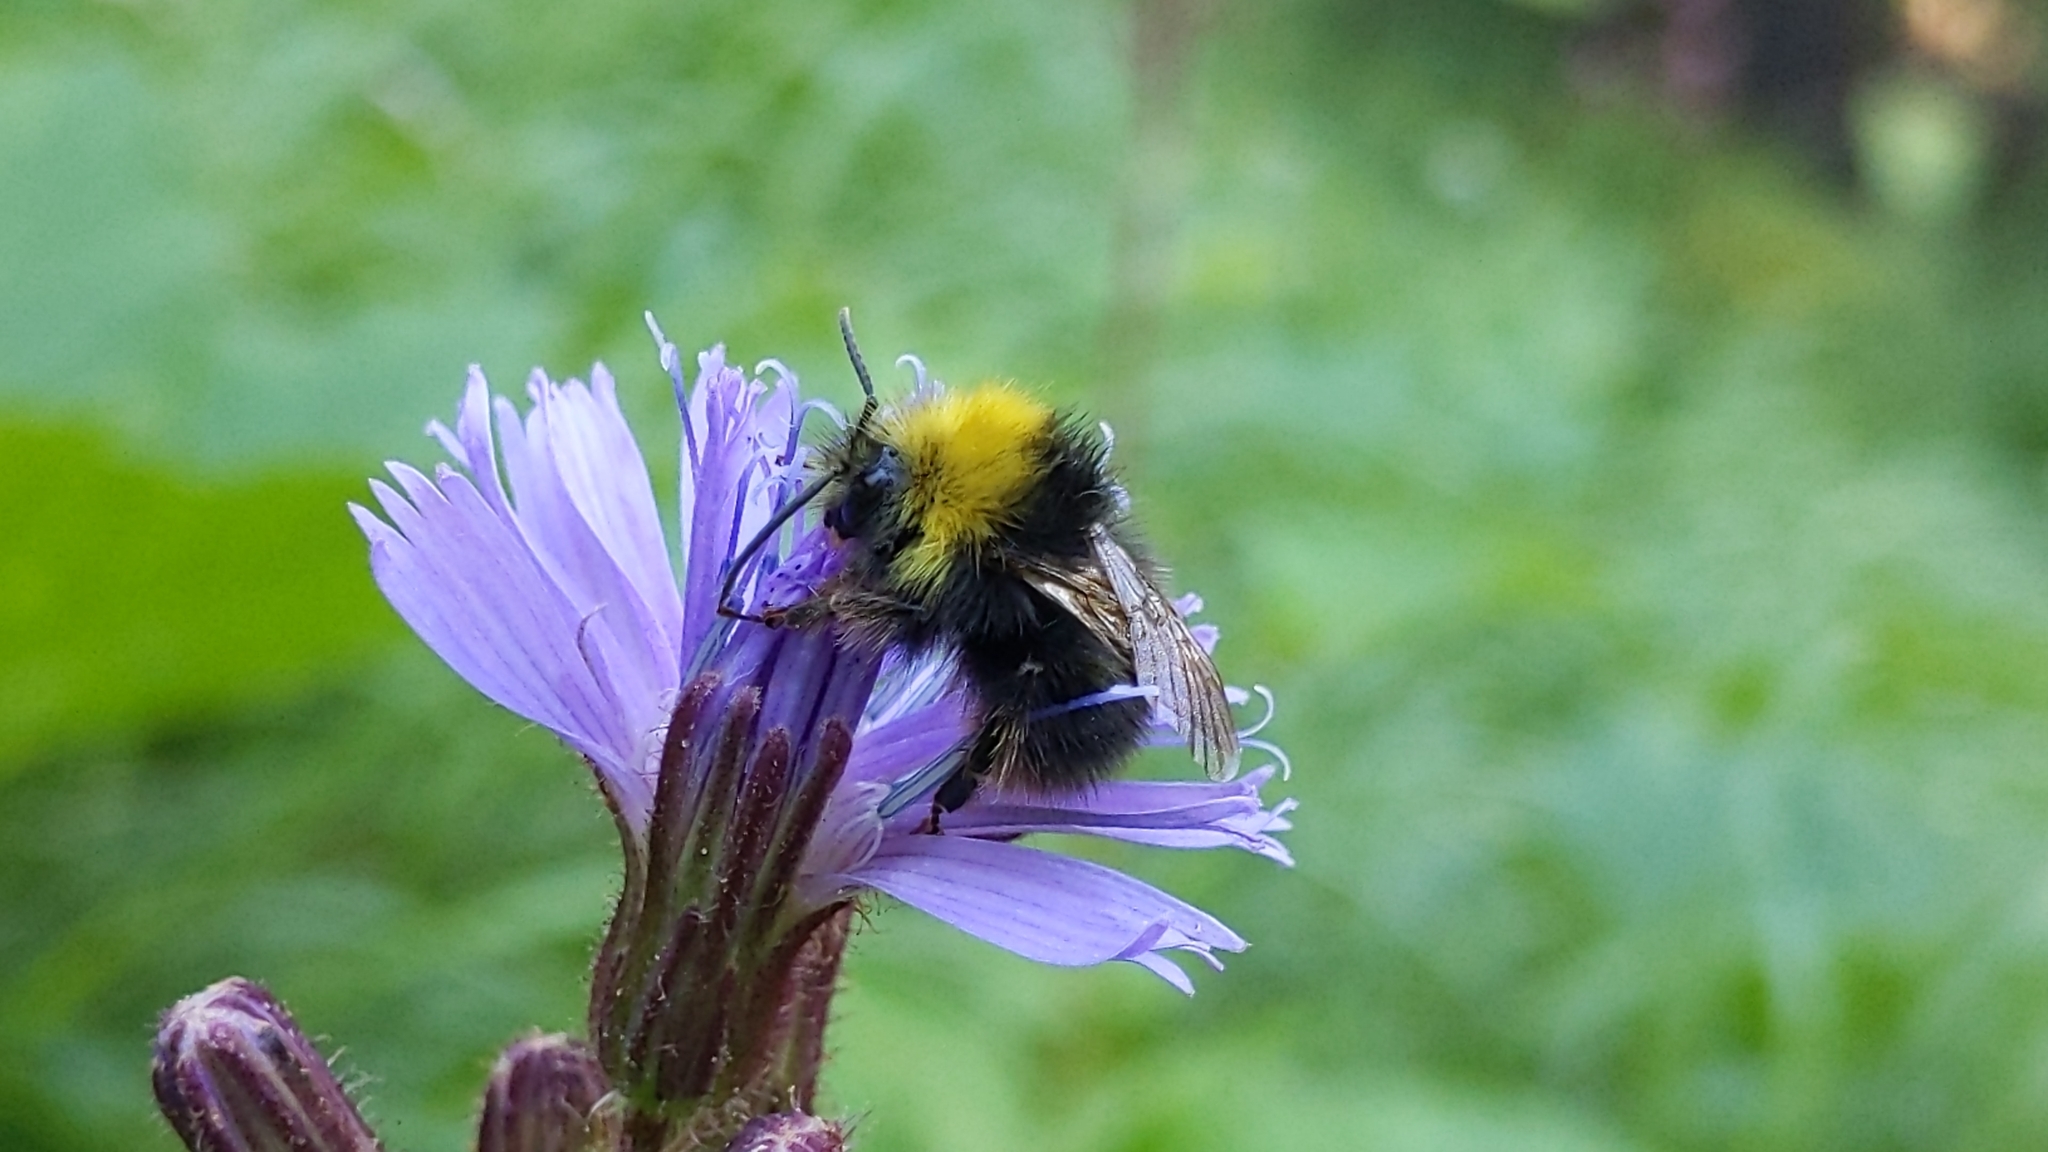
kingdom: Animalia
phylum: Arthropoda
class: Insecta
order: Hymenoptera
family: Apidae
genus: Bombus
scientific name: Bombus pratorum
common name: Early humble-bee
